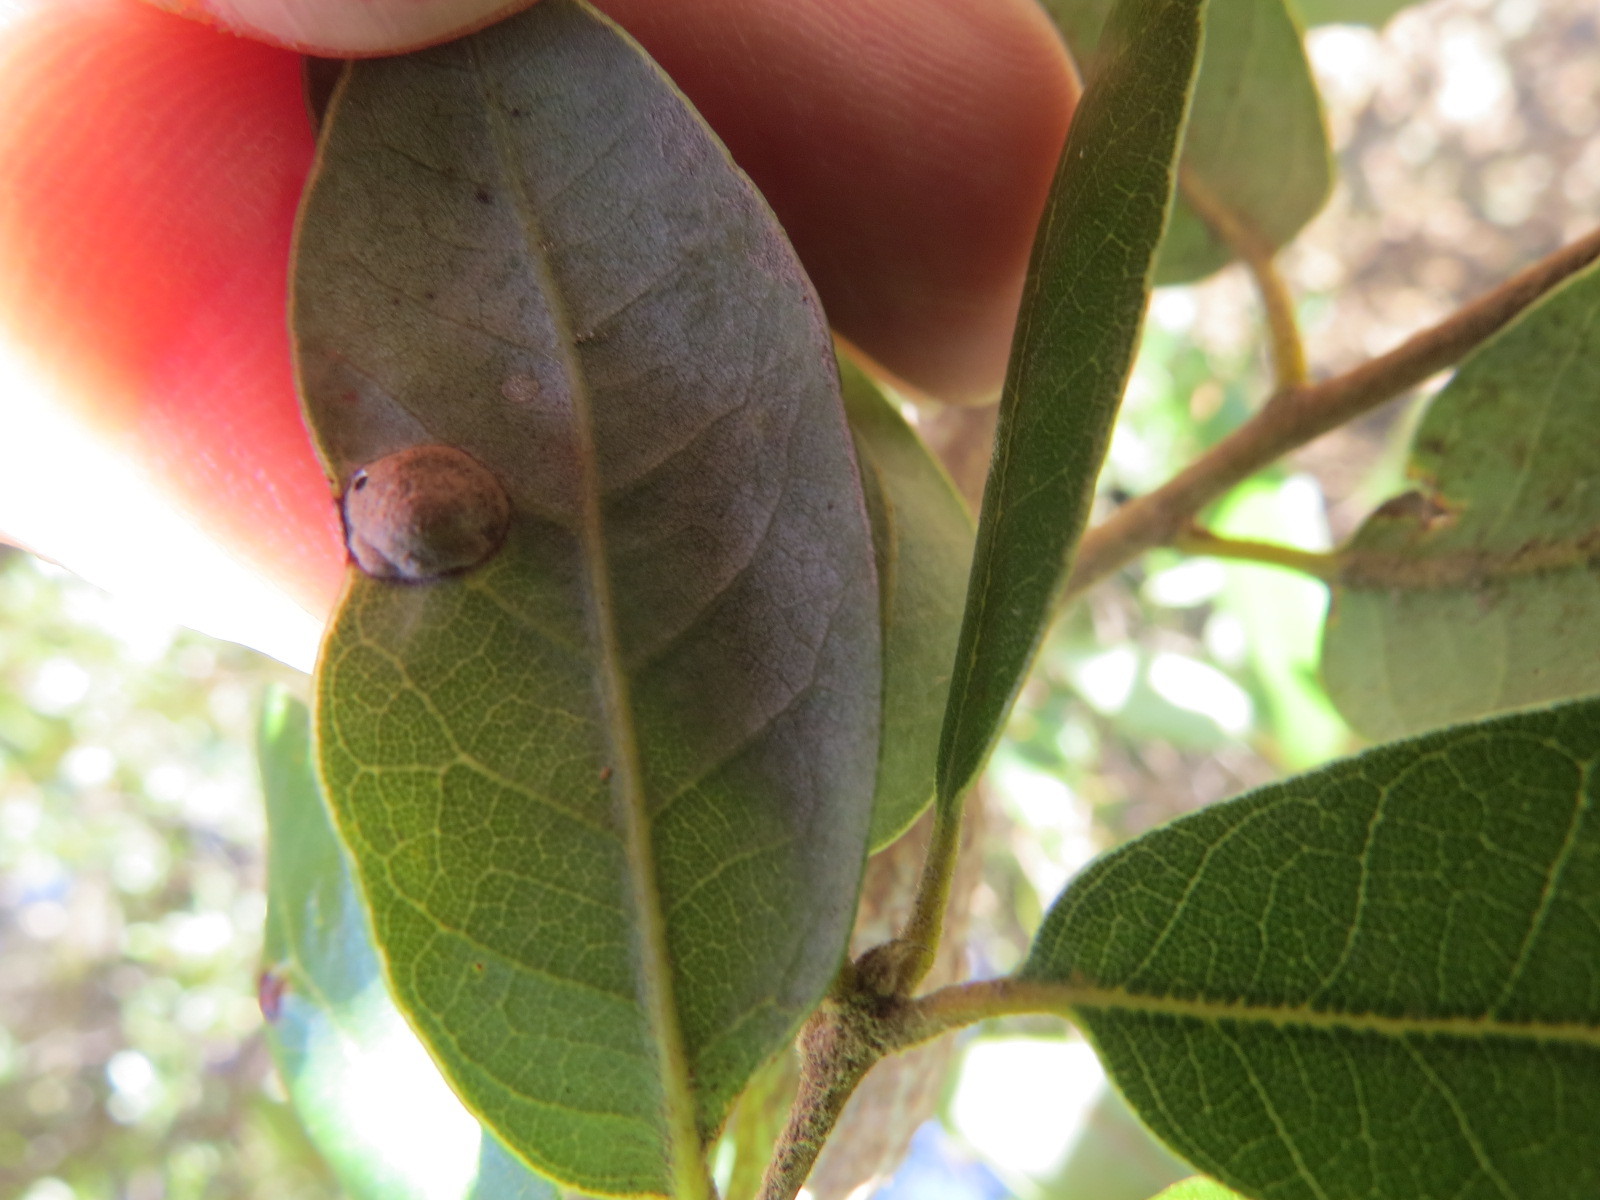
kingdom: Animalia
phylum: Arthropoda
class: Insecta
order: Hymenoptera
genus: Paracraspis
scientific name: Paracraspis
